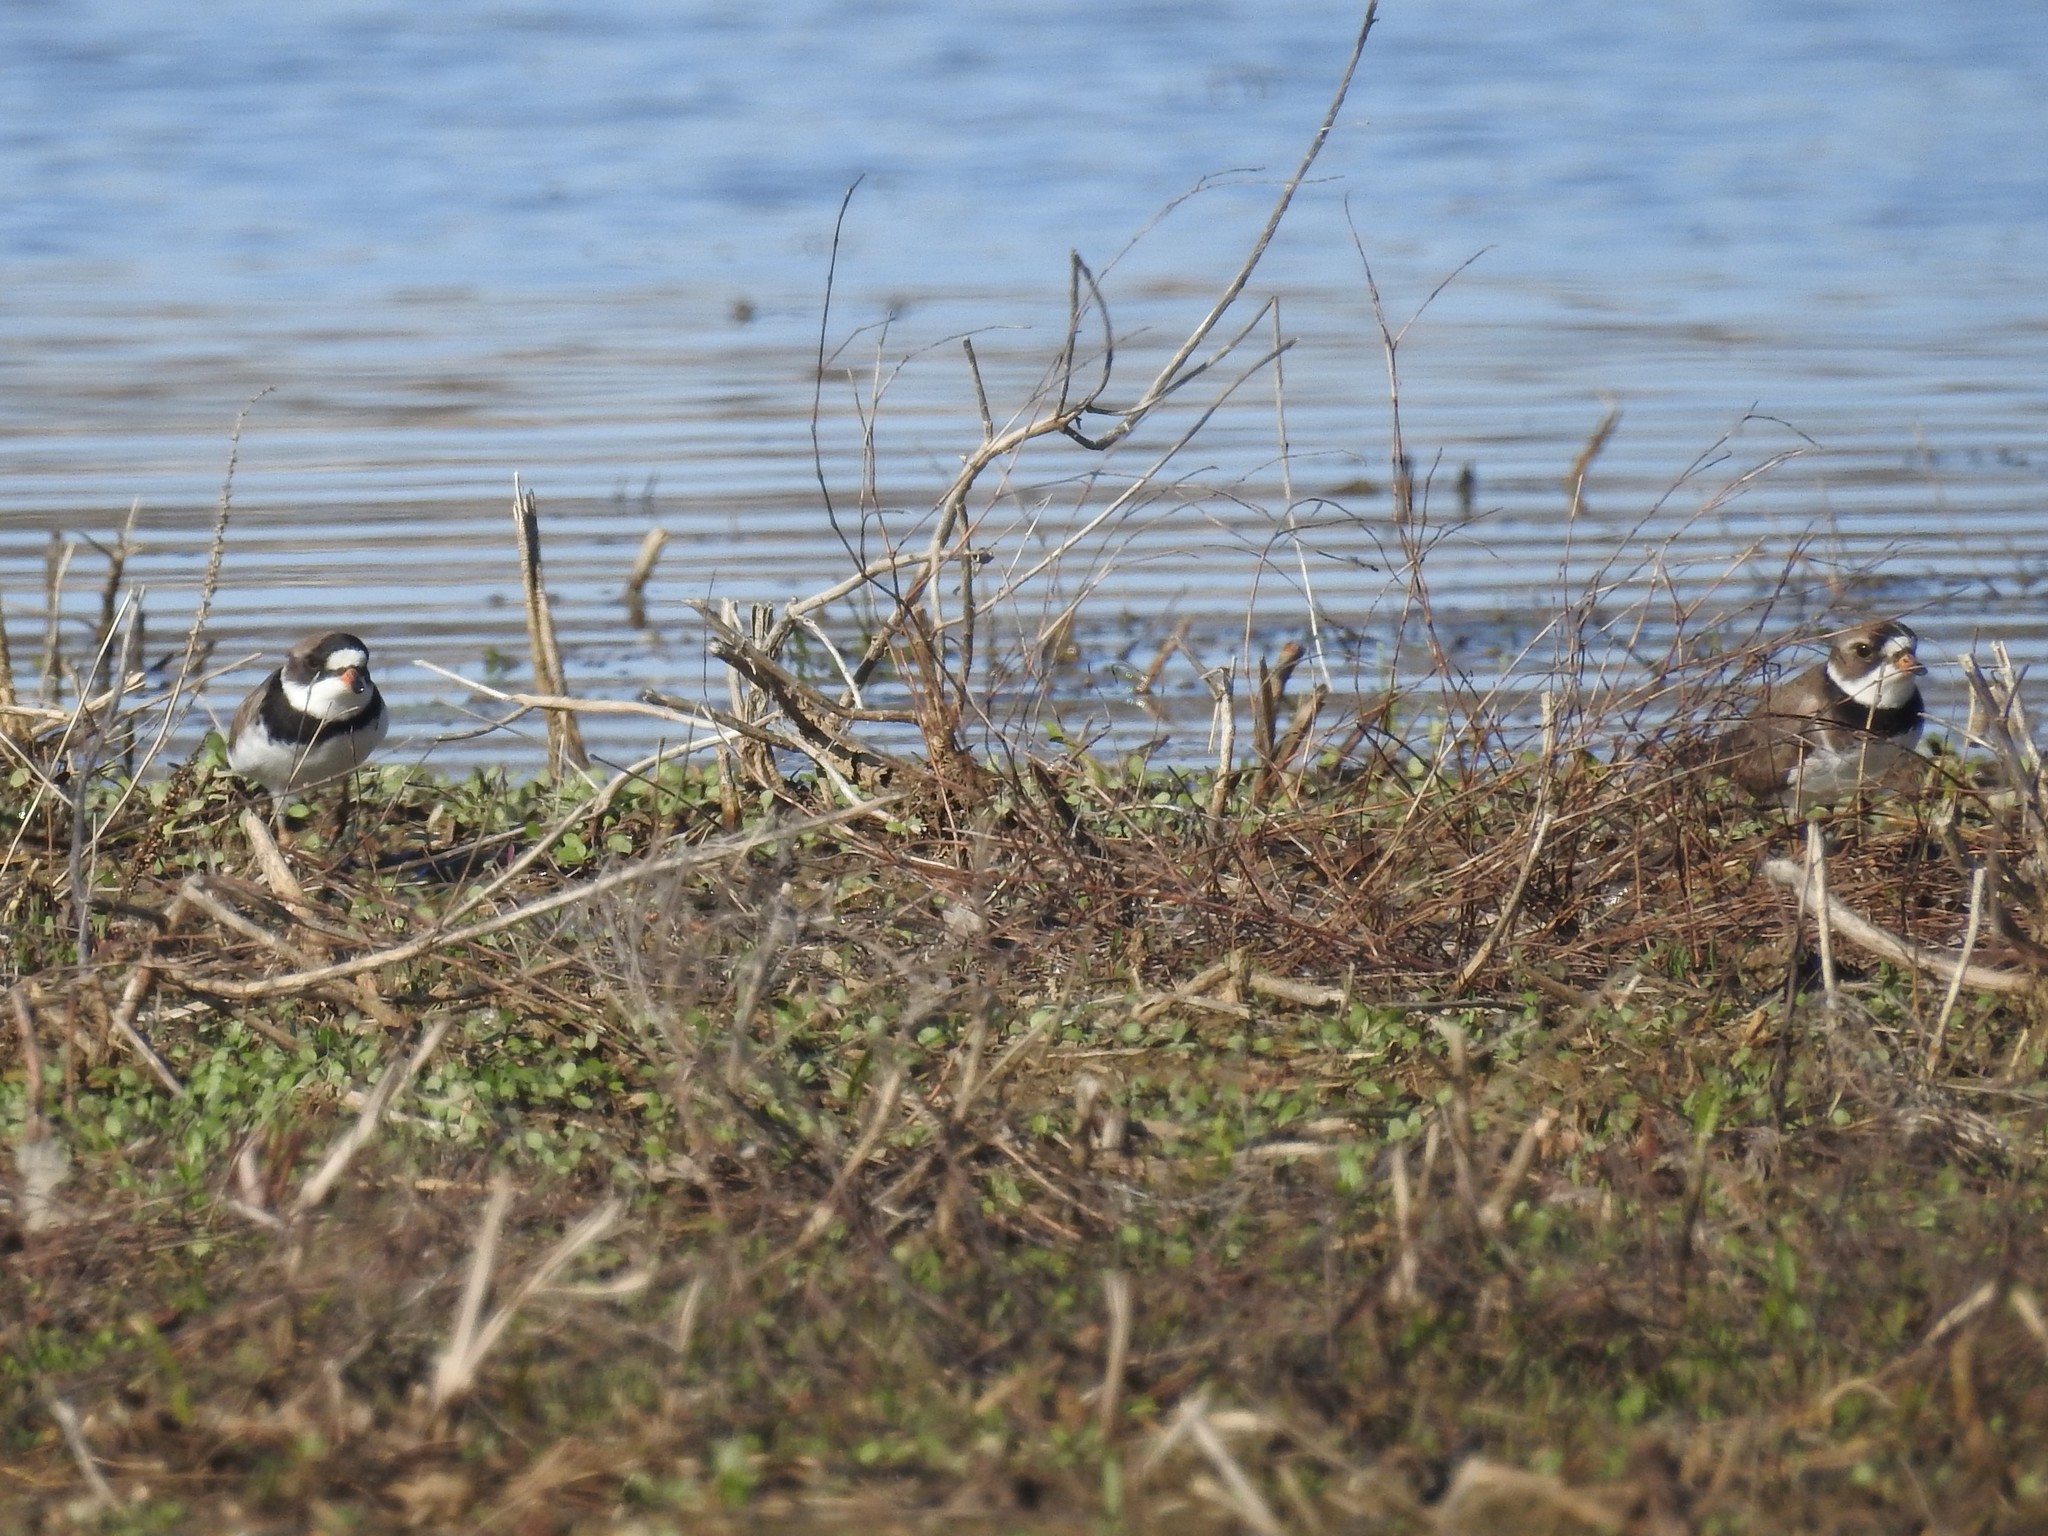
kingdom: Animalia
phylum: Chordata
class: Aves
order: Charadriiformes
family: Charadriidae
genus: Charadrius
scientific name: Charadrius semipalmatus
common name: Semipalmated plover
